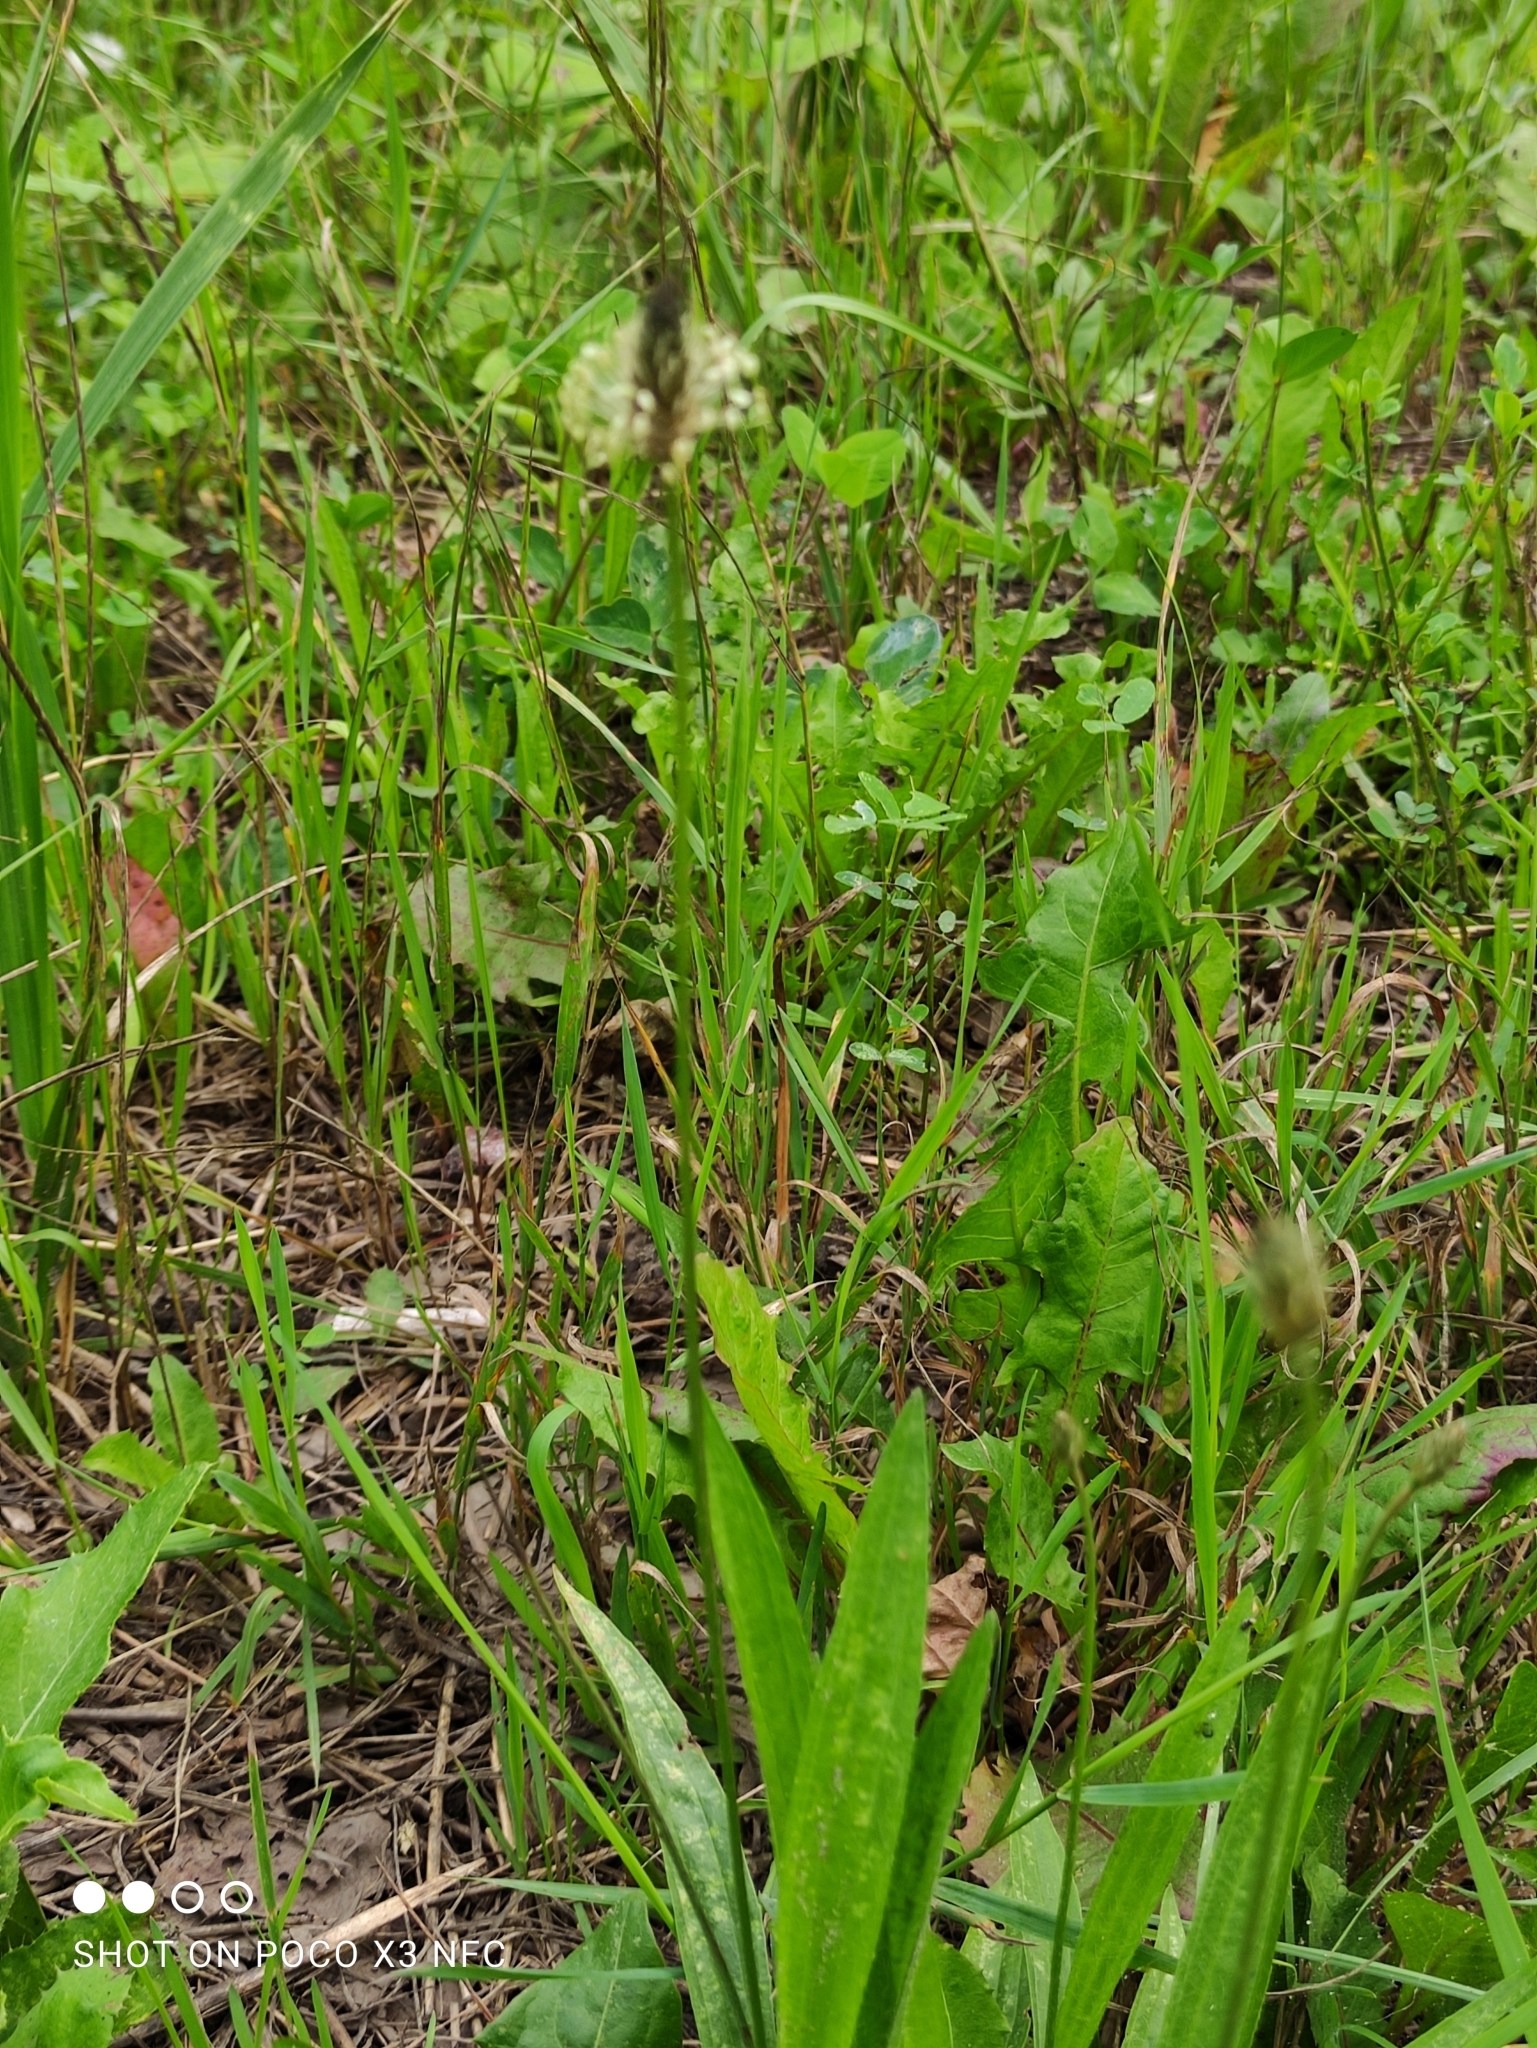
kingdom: Plantae
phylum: Tracheophyta
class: Magnoliopsida
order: Lamiales
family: Plantaginaceae
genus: Plantago
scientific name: Plantago lanceolata
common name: Ribwort plantain
